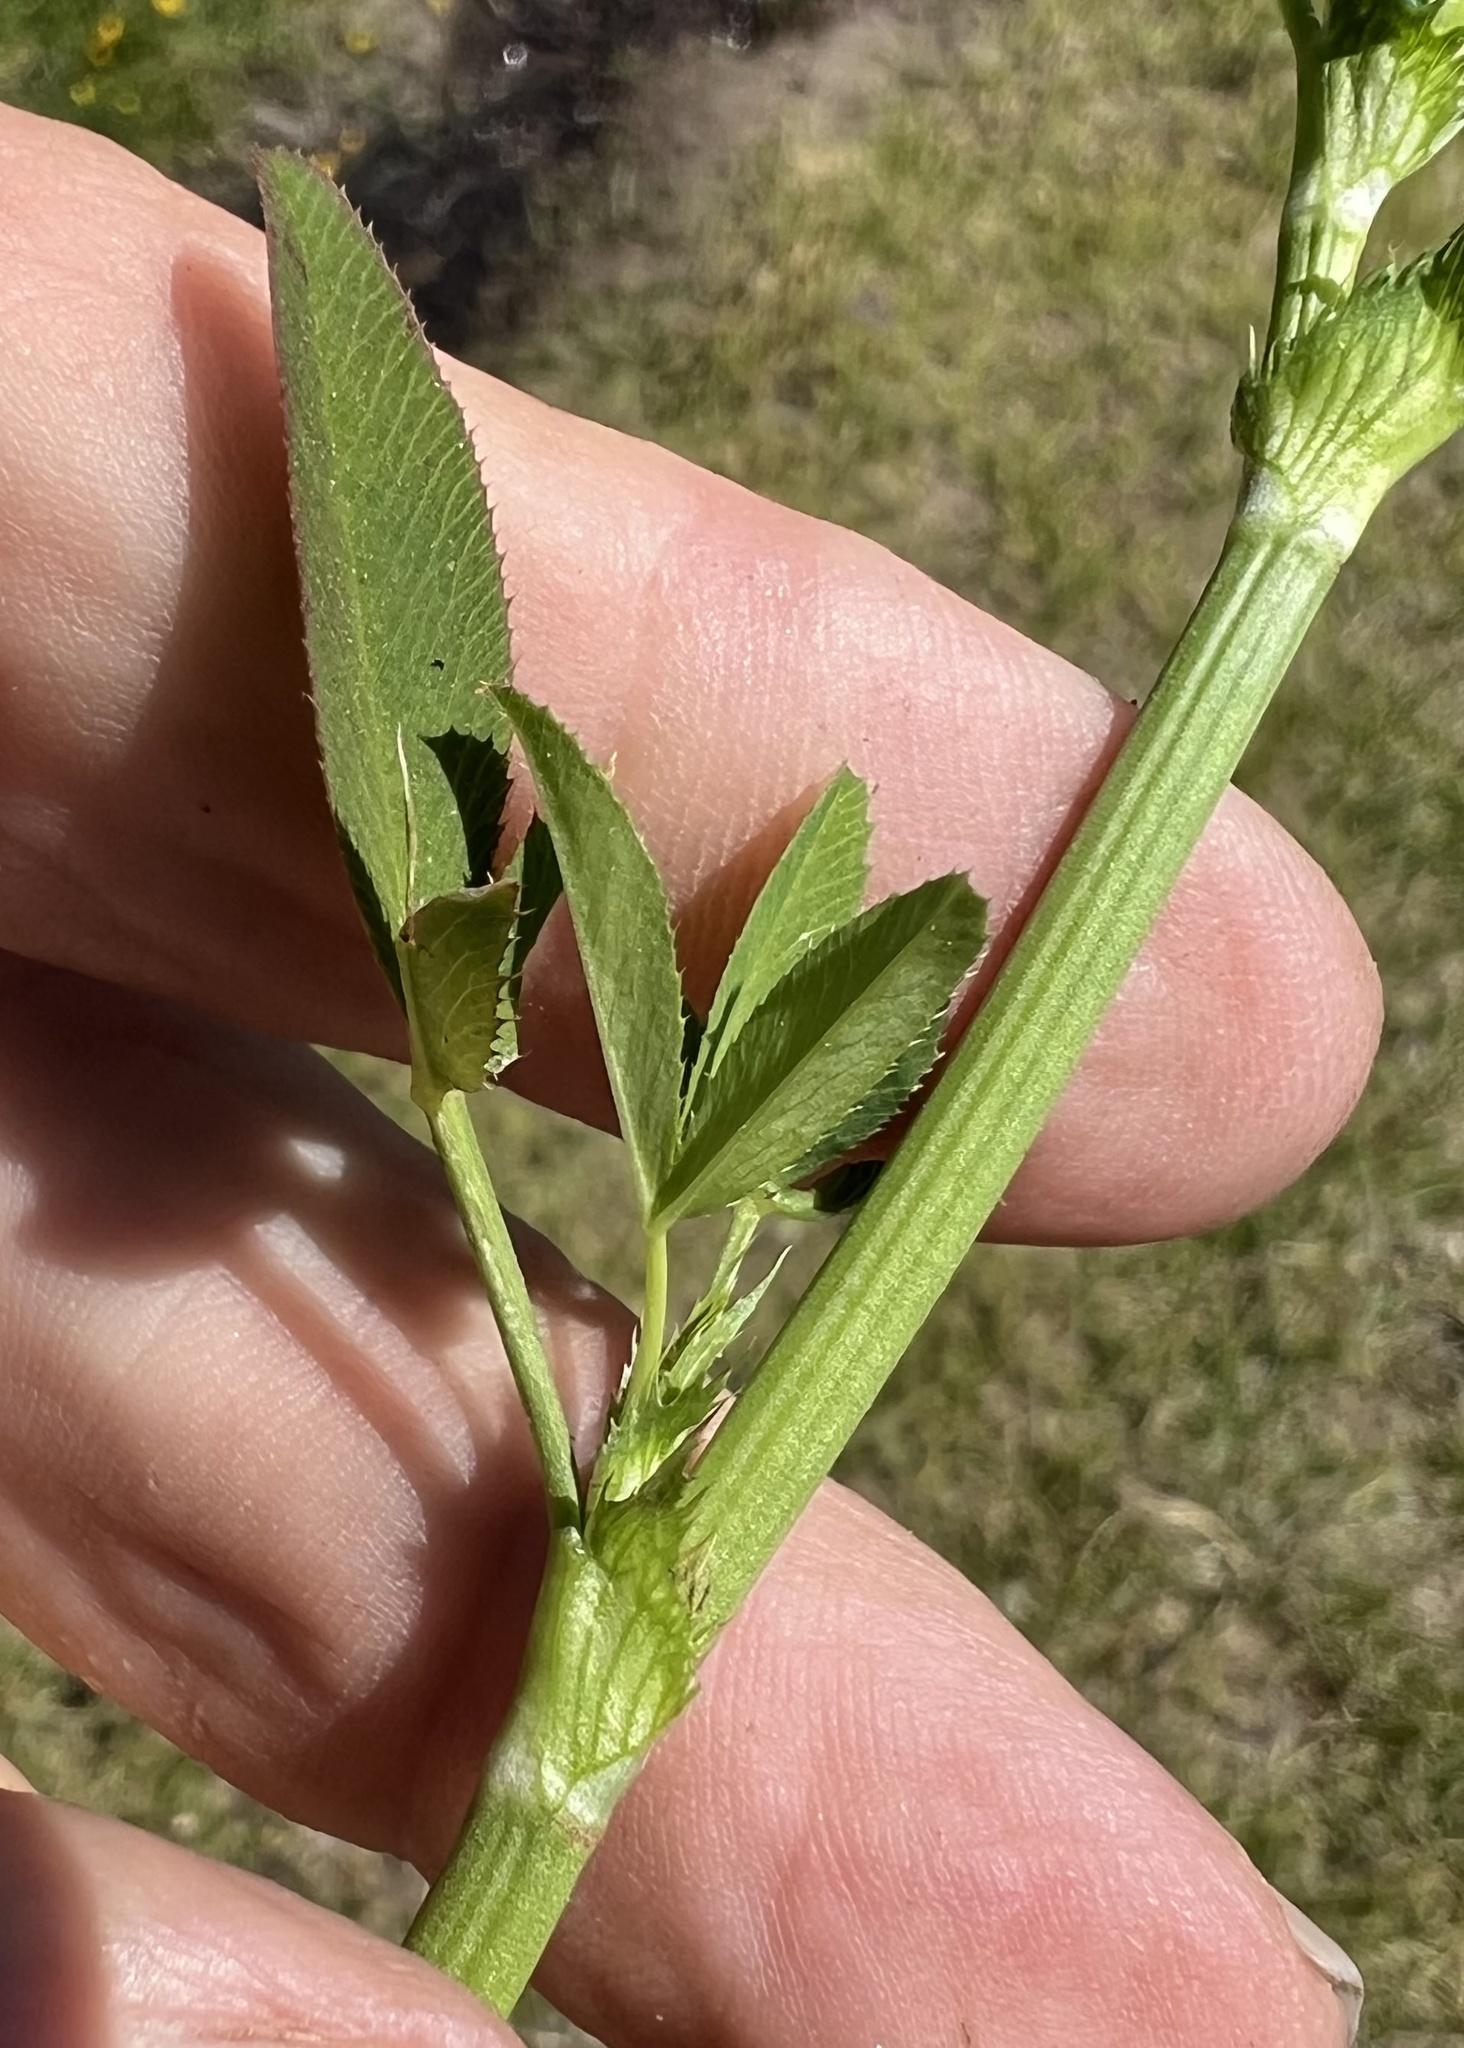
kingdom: Plantae
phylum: Tracheophyta
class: Magnoliopsida
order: Fabales
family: Fabaceae
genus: Trifolium
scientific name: Trifolium wormskioldii
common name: Springbank clover
